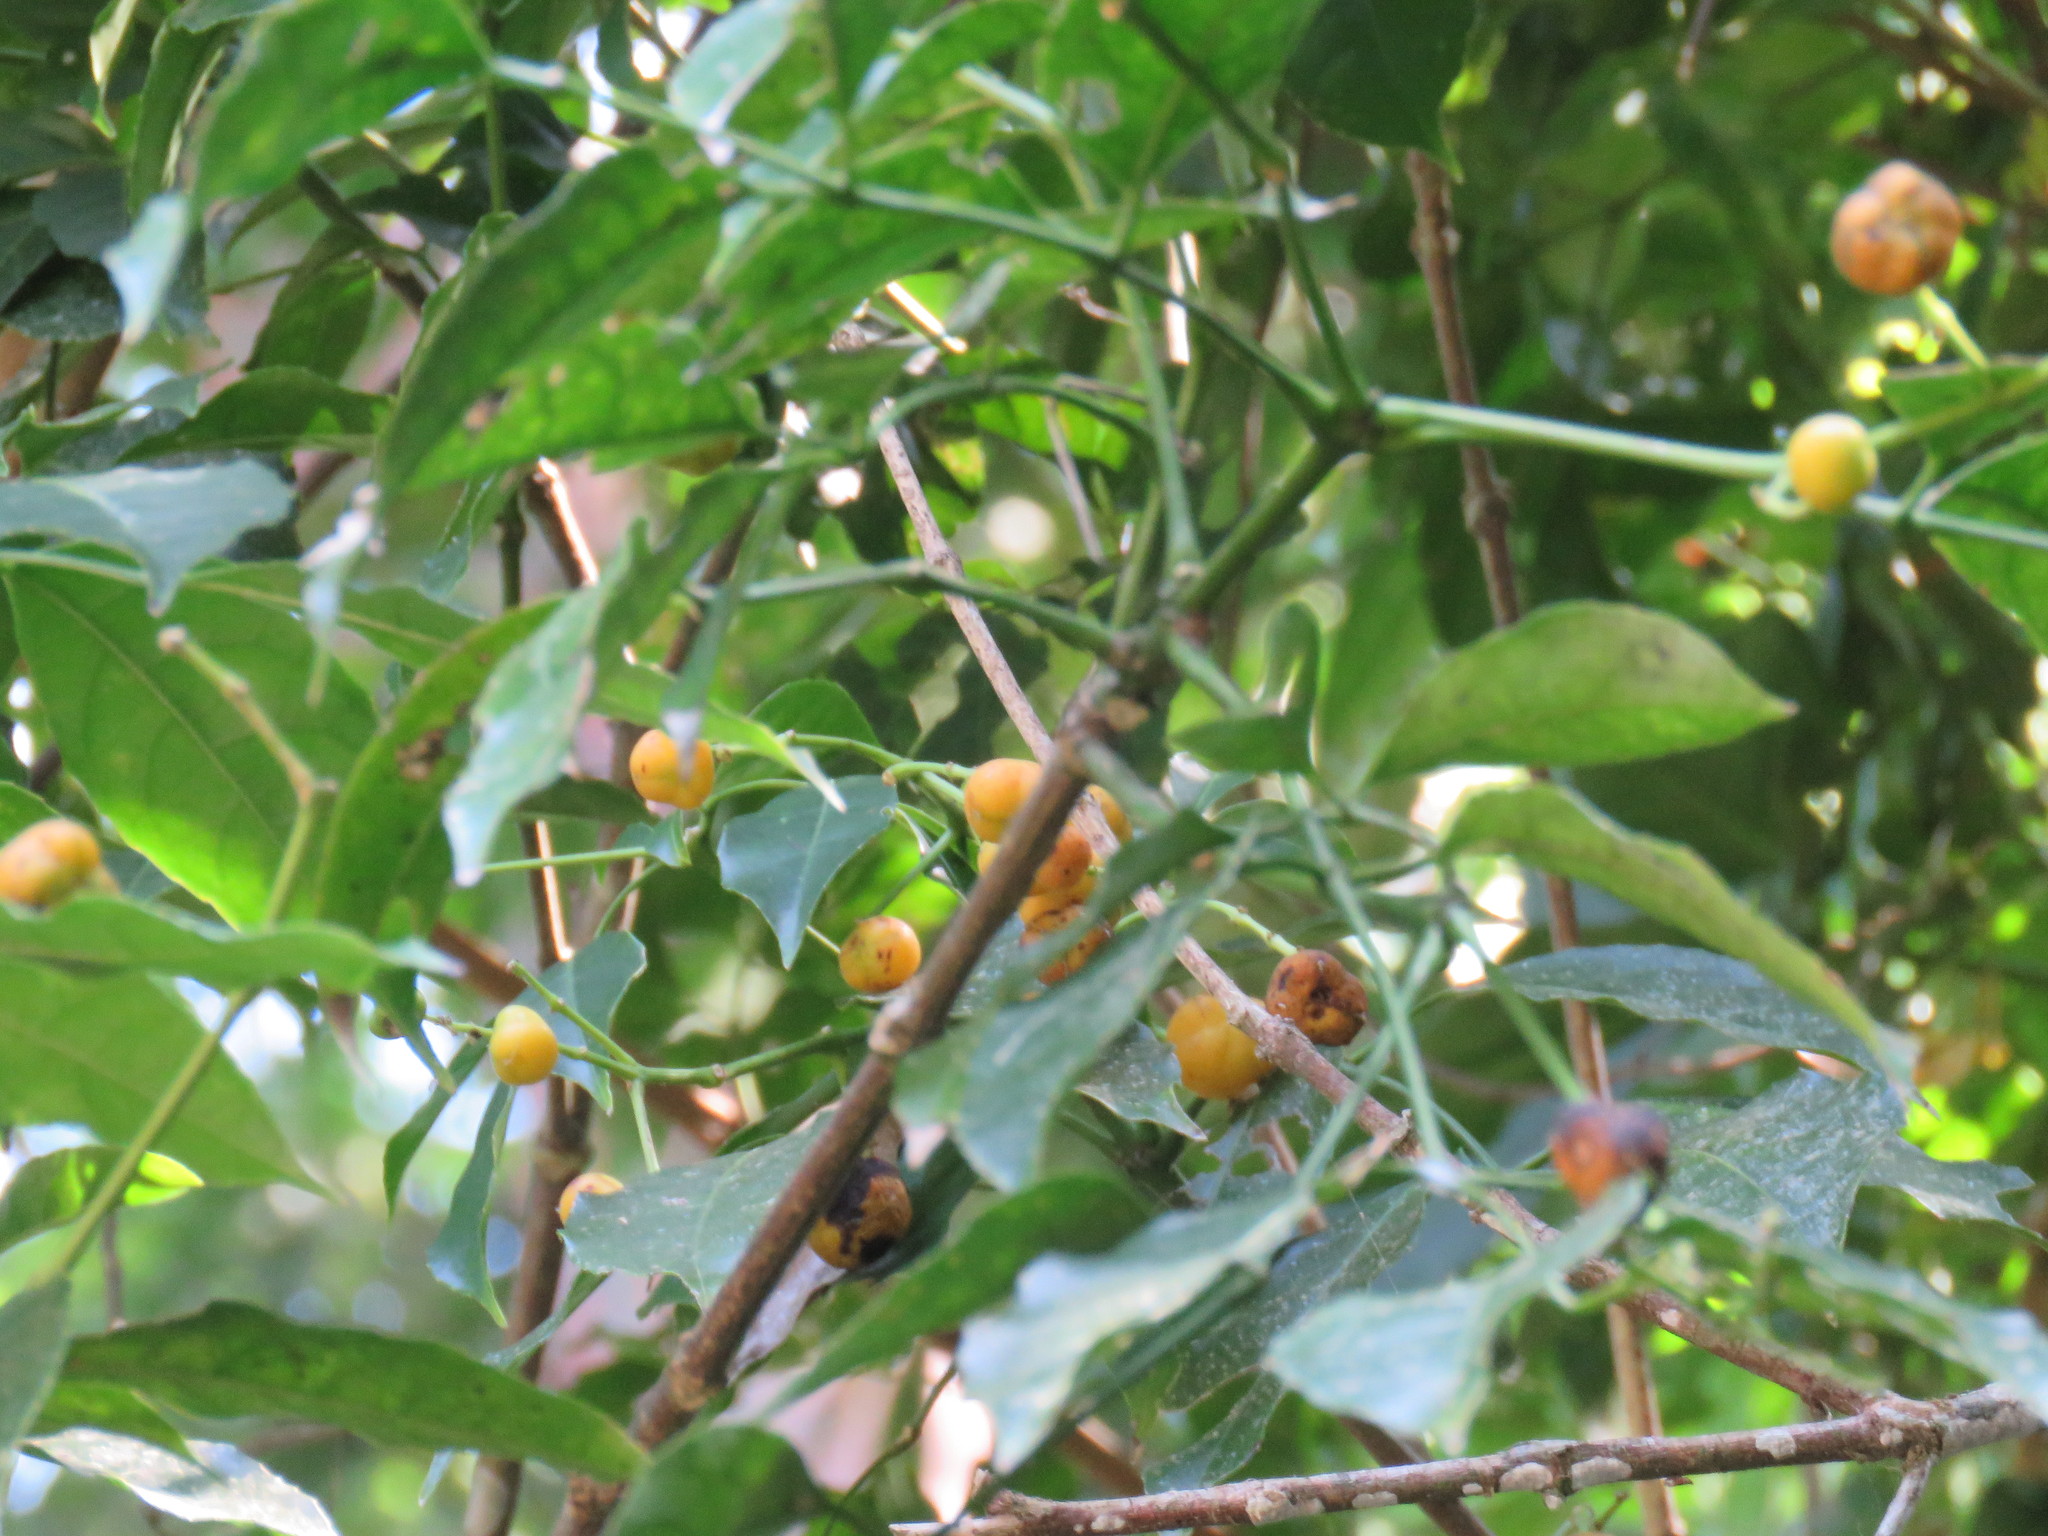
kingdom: Plantae
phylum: Tracheophyta
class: Magnoliopsida
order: Crossosomatales
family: Staphyleaceae
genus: Turpinia
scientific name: Turpinia occidentalis
